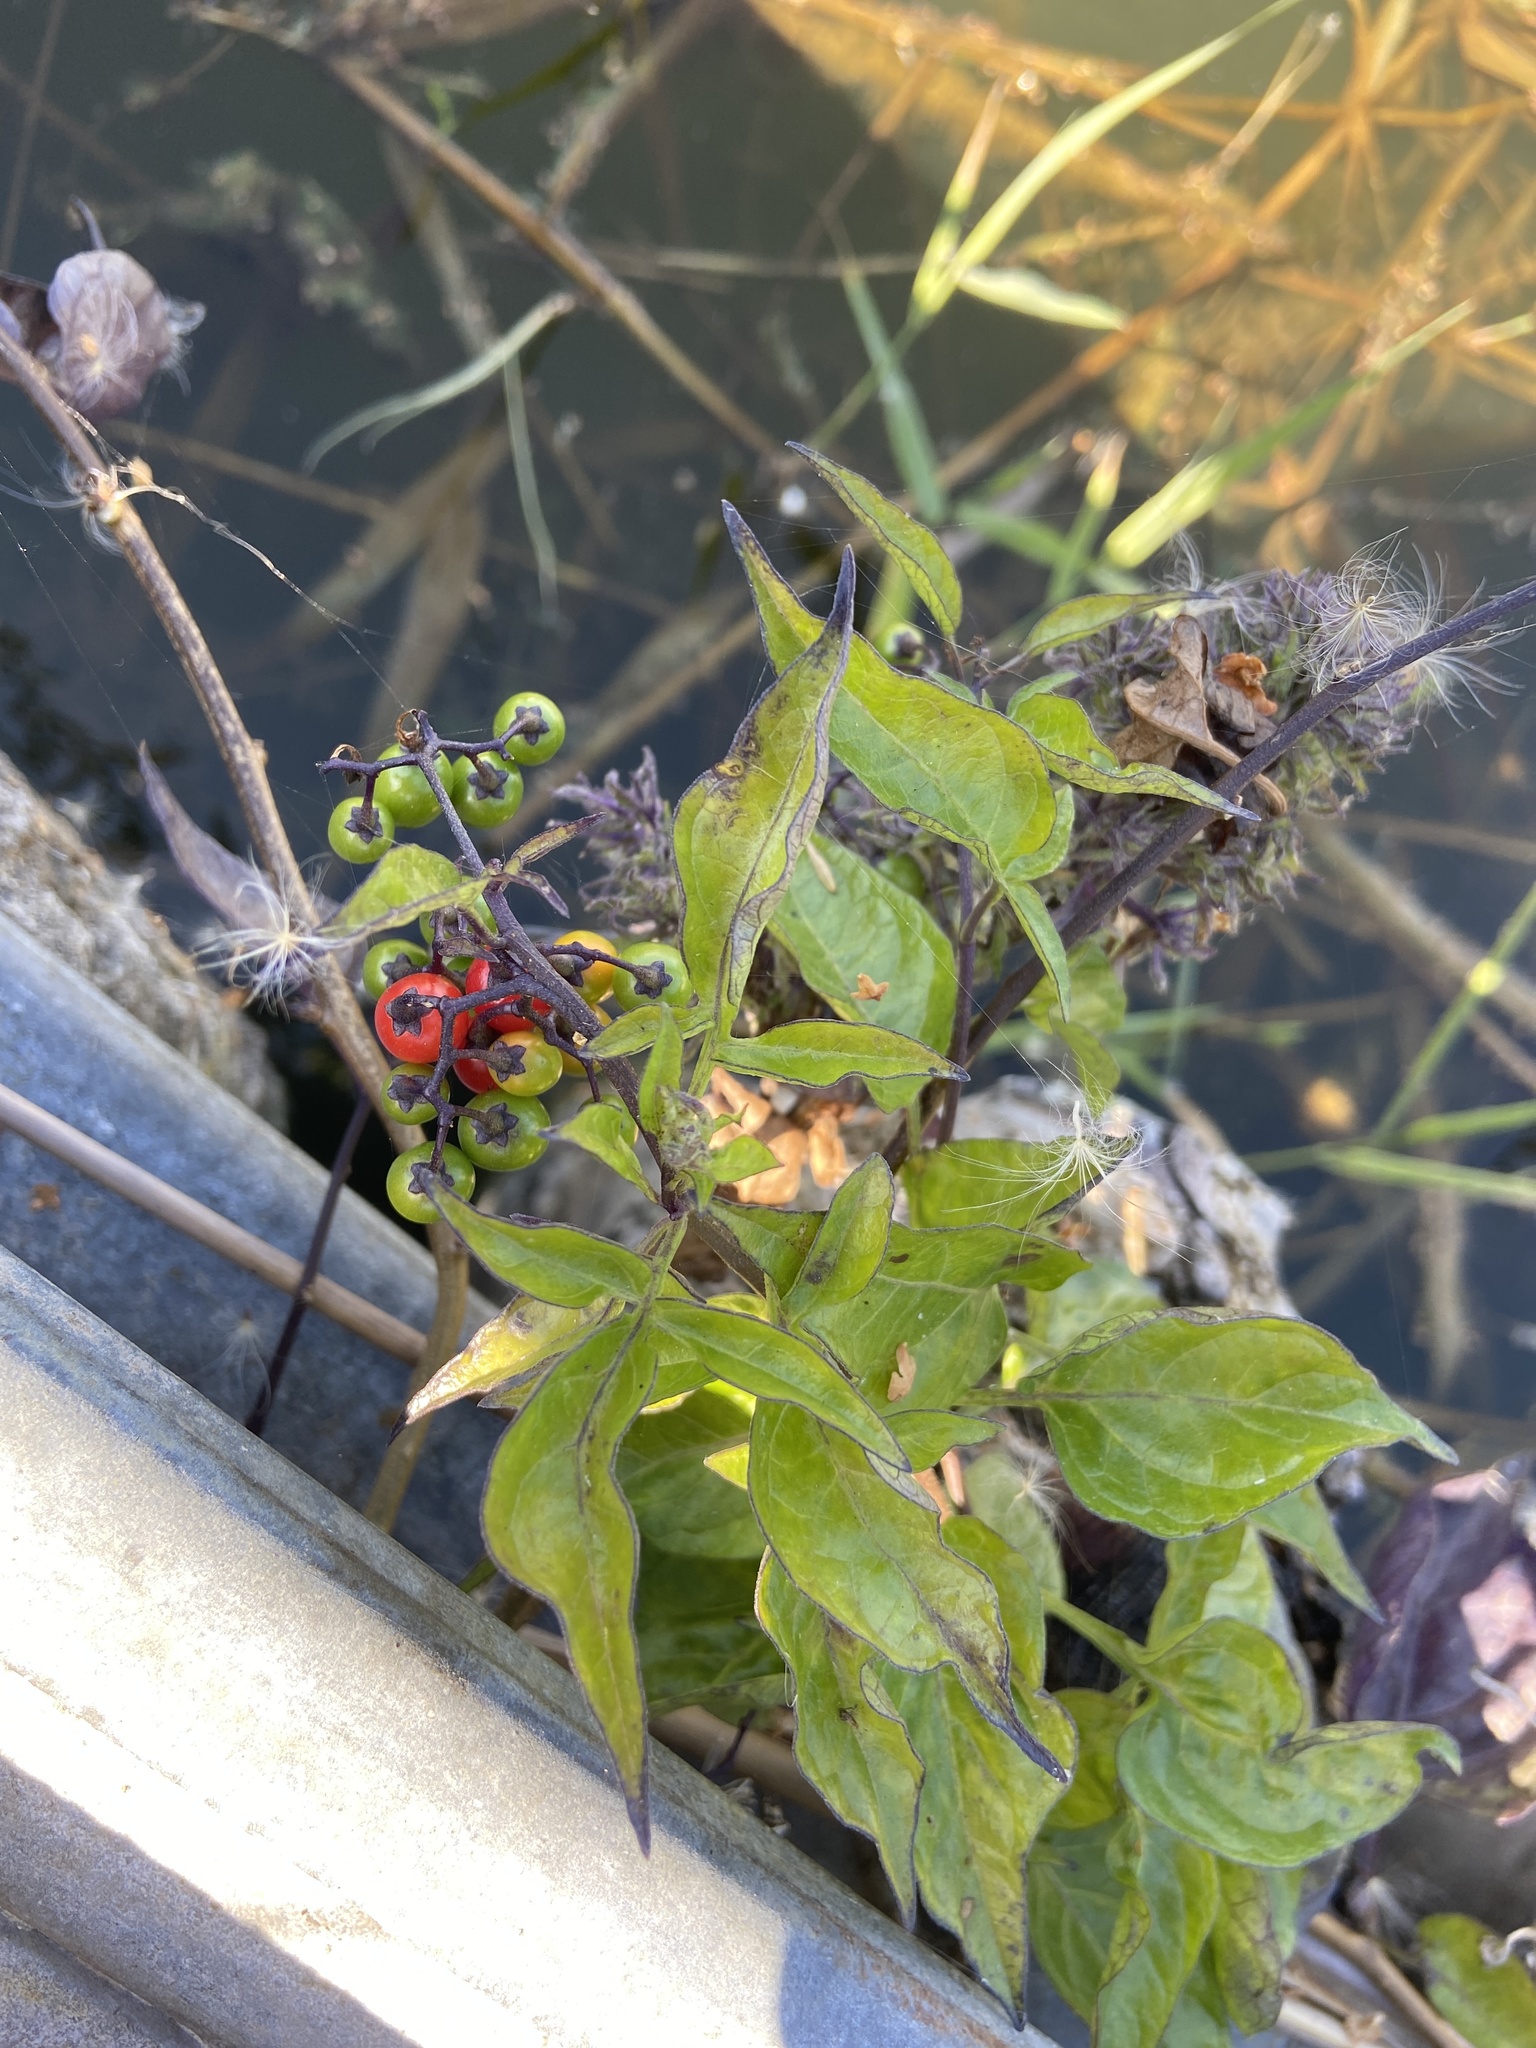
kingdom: Plantae
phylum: Tracheophyta
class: Magnoliopsida
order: Solanales
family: Solanaceae
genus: Solanum
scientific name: Solanum dulcamara
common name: Climbing nightshade
